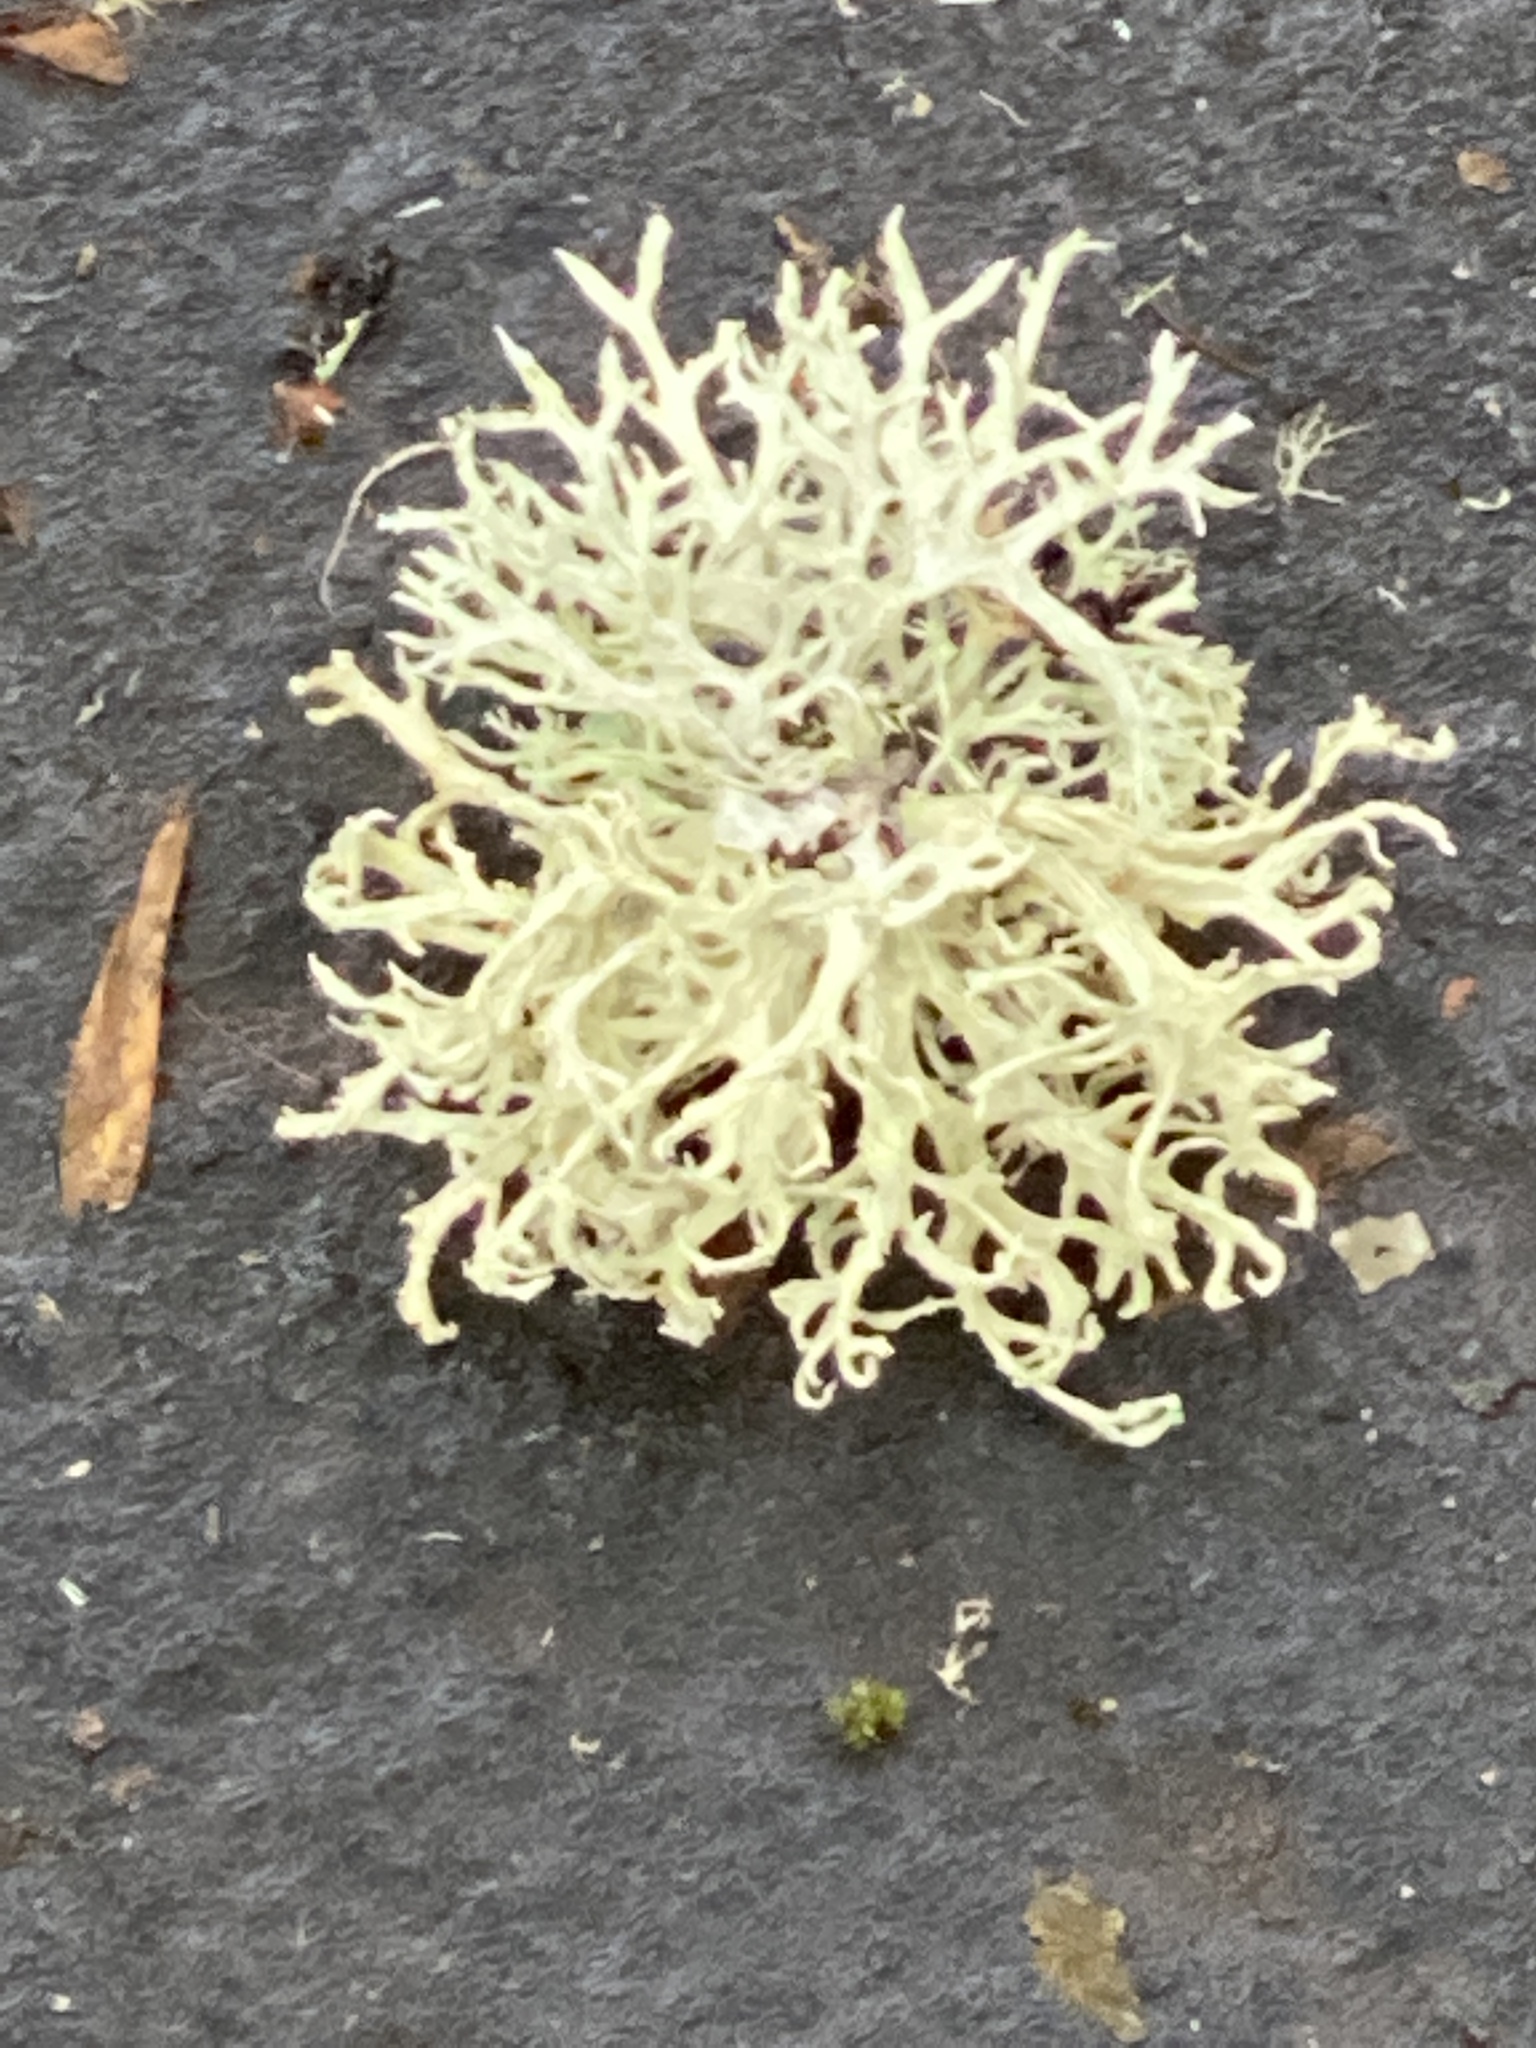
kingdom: Fungi
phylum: Ascomycota
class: Lecanoromycetes
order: Lecanorales
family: Parmeliaceae
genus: Evernia
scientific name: Evernia prunastri
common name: Oak moss
